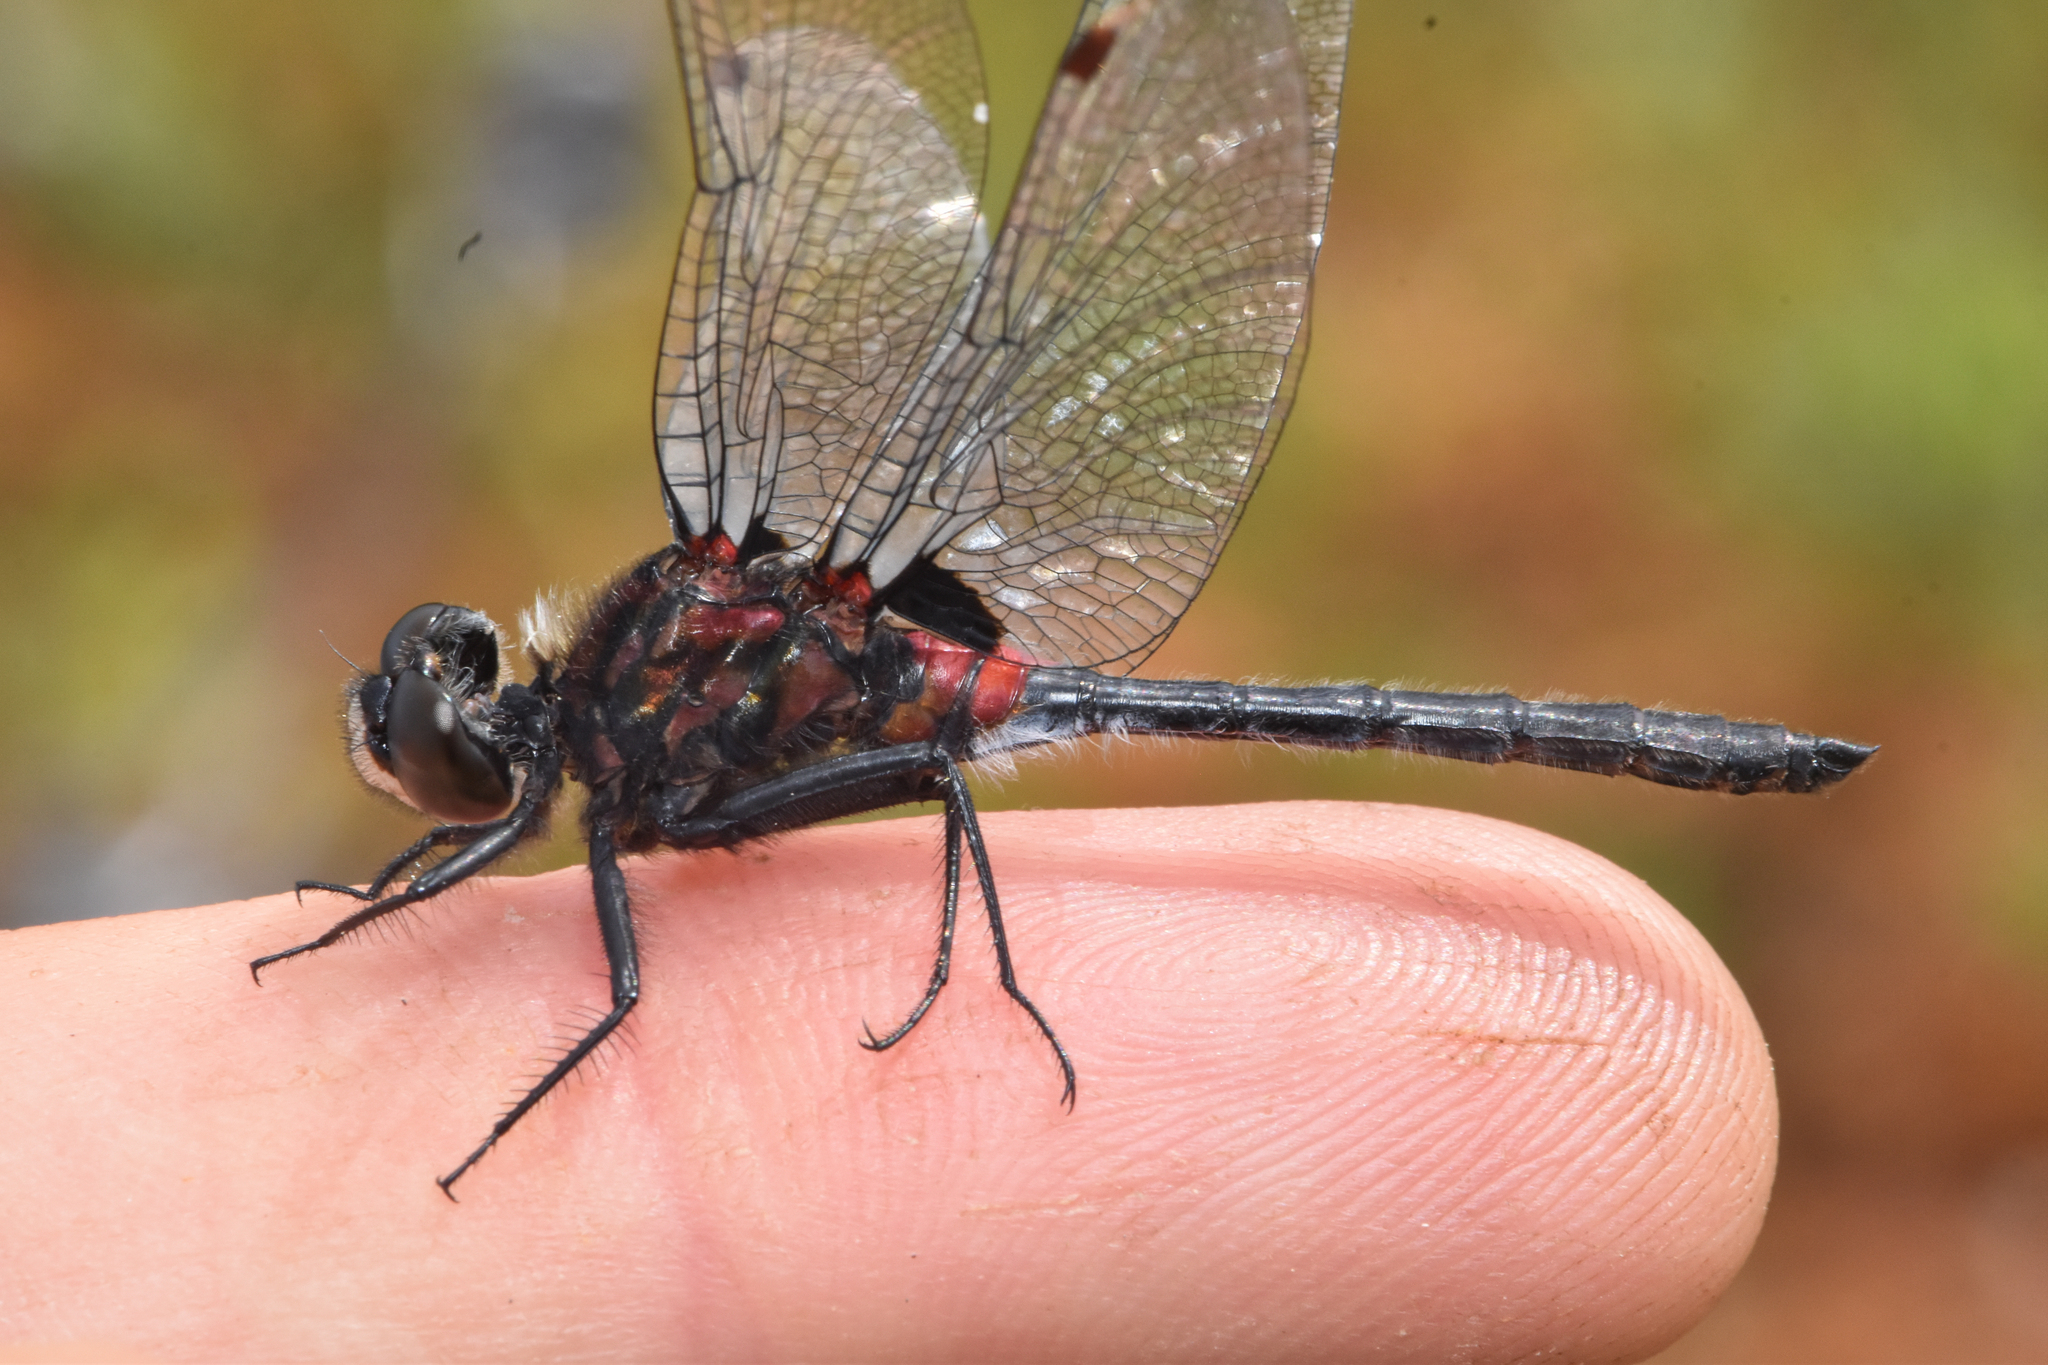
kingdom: Animalia
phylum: Arthropoda
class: Insecta
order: Odonata
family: Libellulidae
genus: Leucorrhinia
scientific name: Leucorrhinia glacialis
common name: Crimson-ringed whiteface
